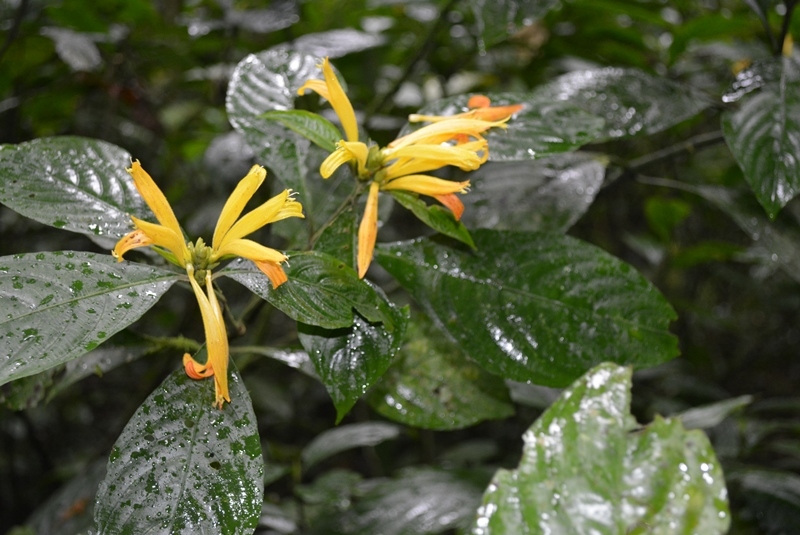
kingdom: Plantae
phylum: Tracheophyta
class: Magnoliopsida
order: Lamiales
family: Acanthaceae
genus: Justicia
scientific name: Justicia aurea
